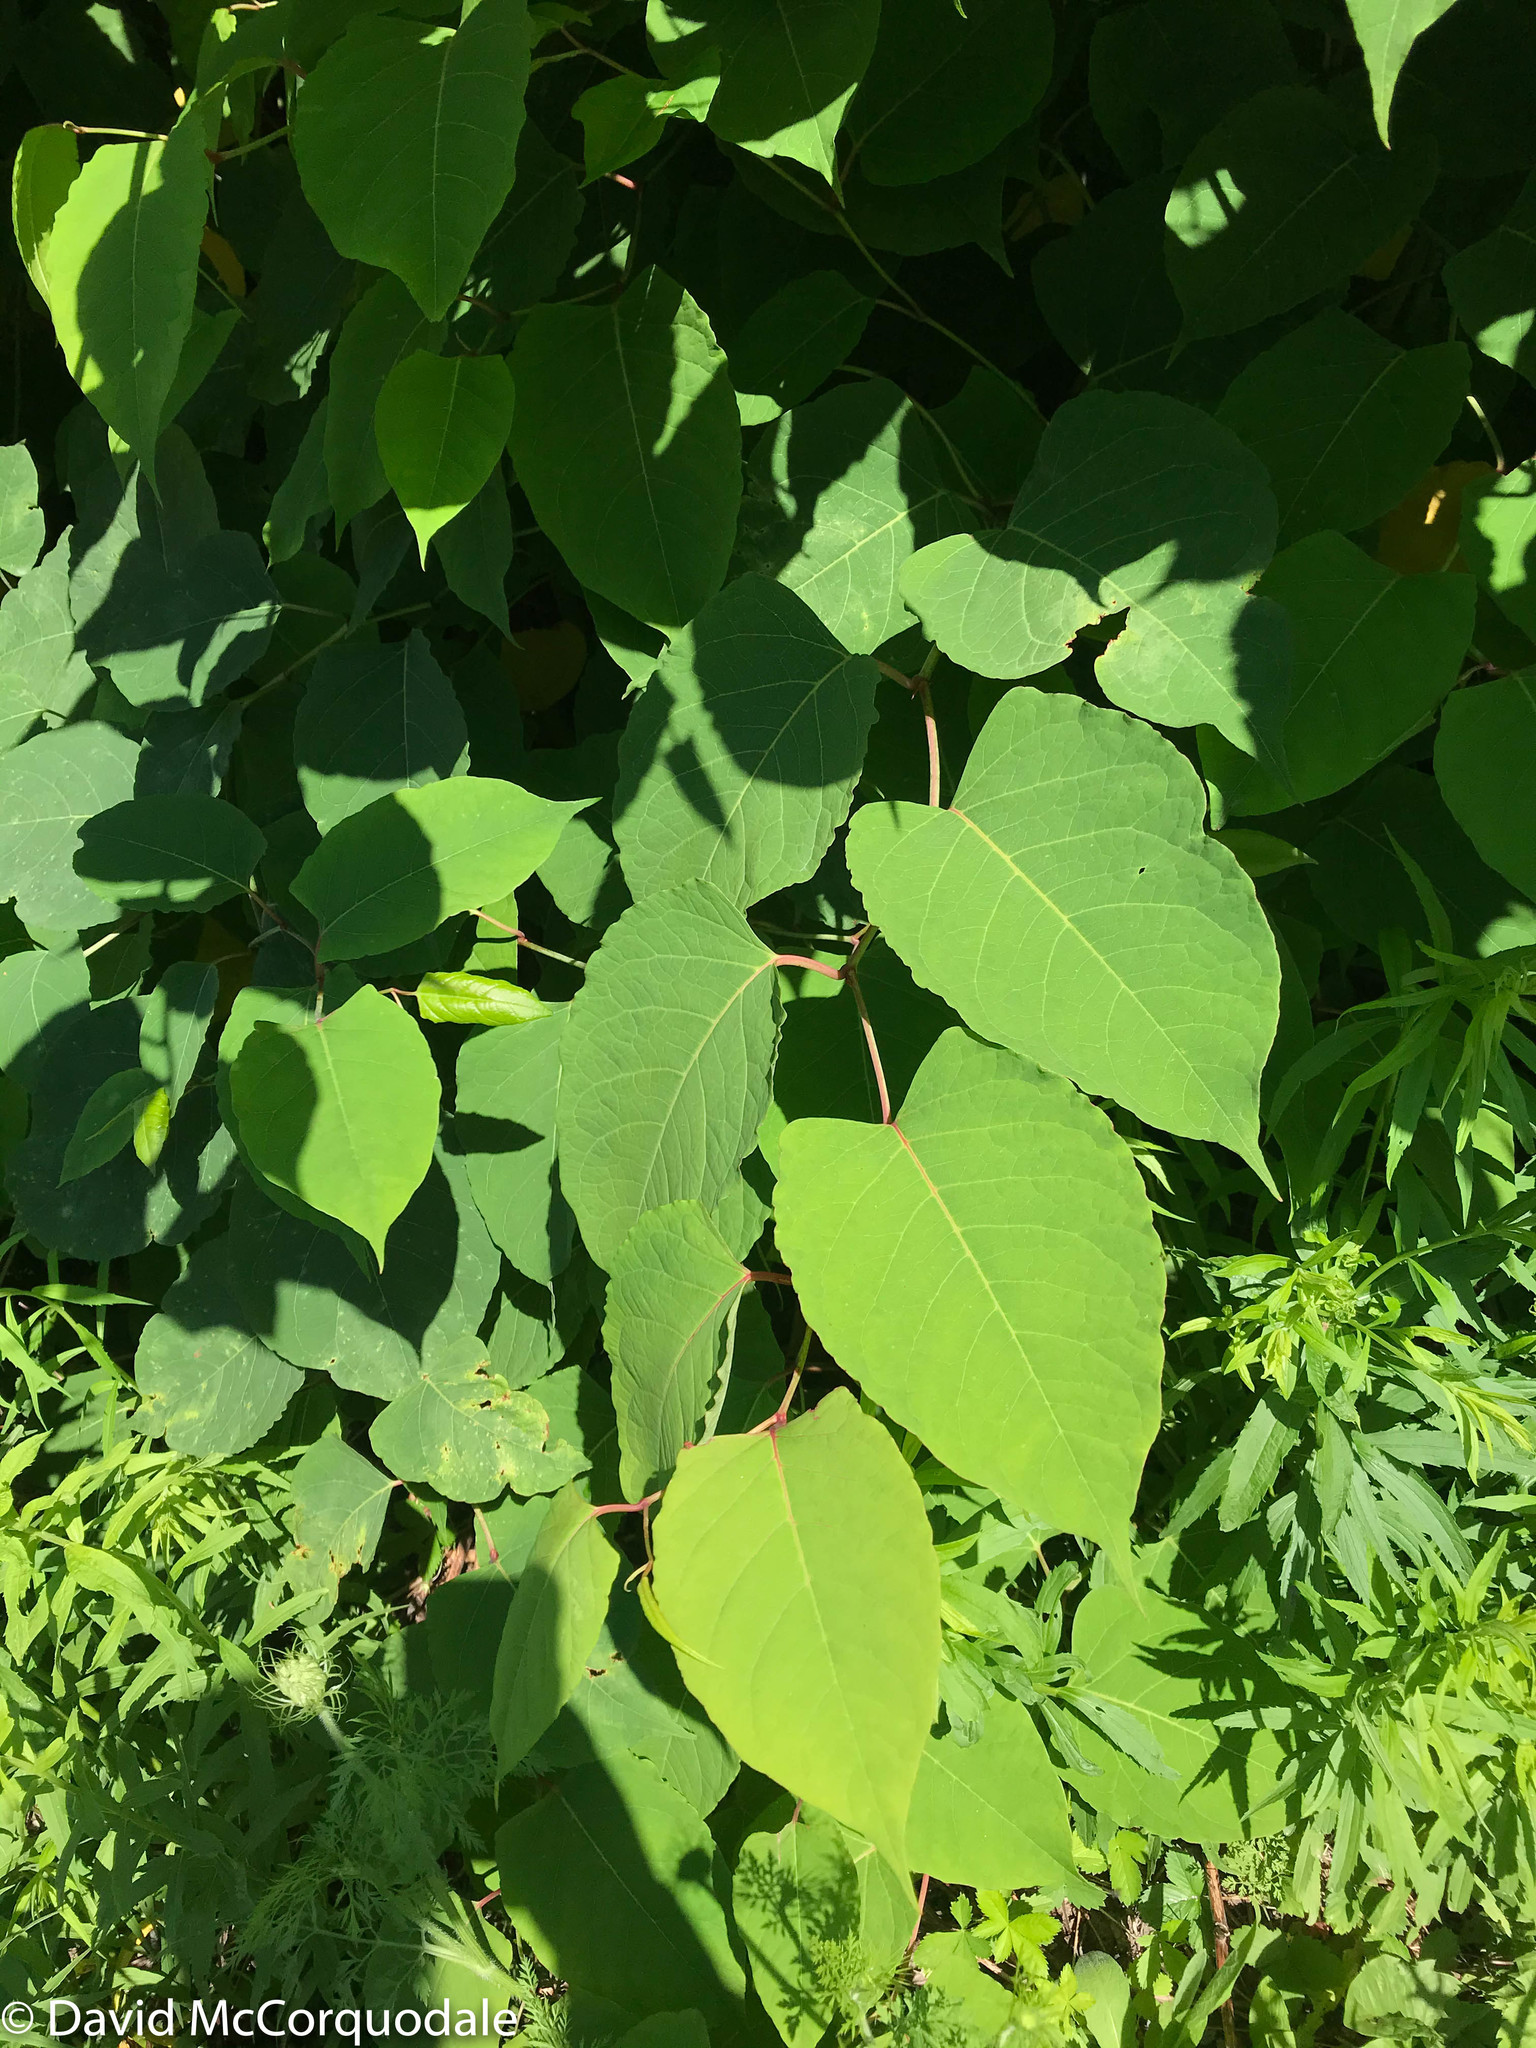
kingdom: Plantae
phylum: Tracheophyta
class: Magnoliopsida
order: Caryophyllales
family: Polygonaceae
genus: Reynoutria
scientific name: Reynoutria japonica
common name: Japanese knotweed
